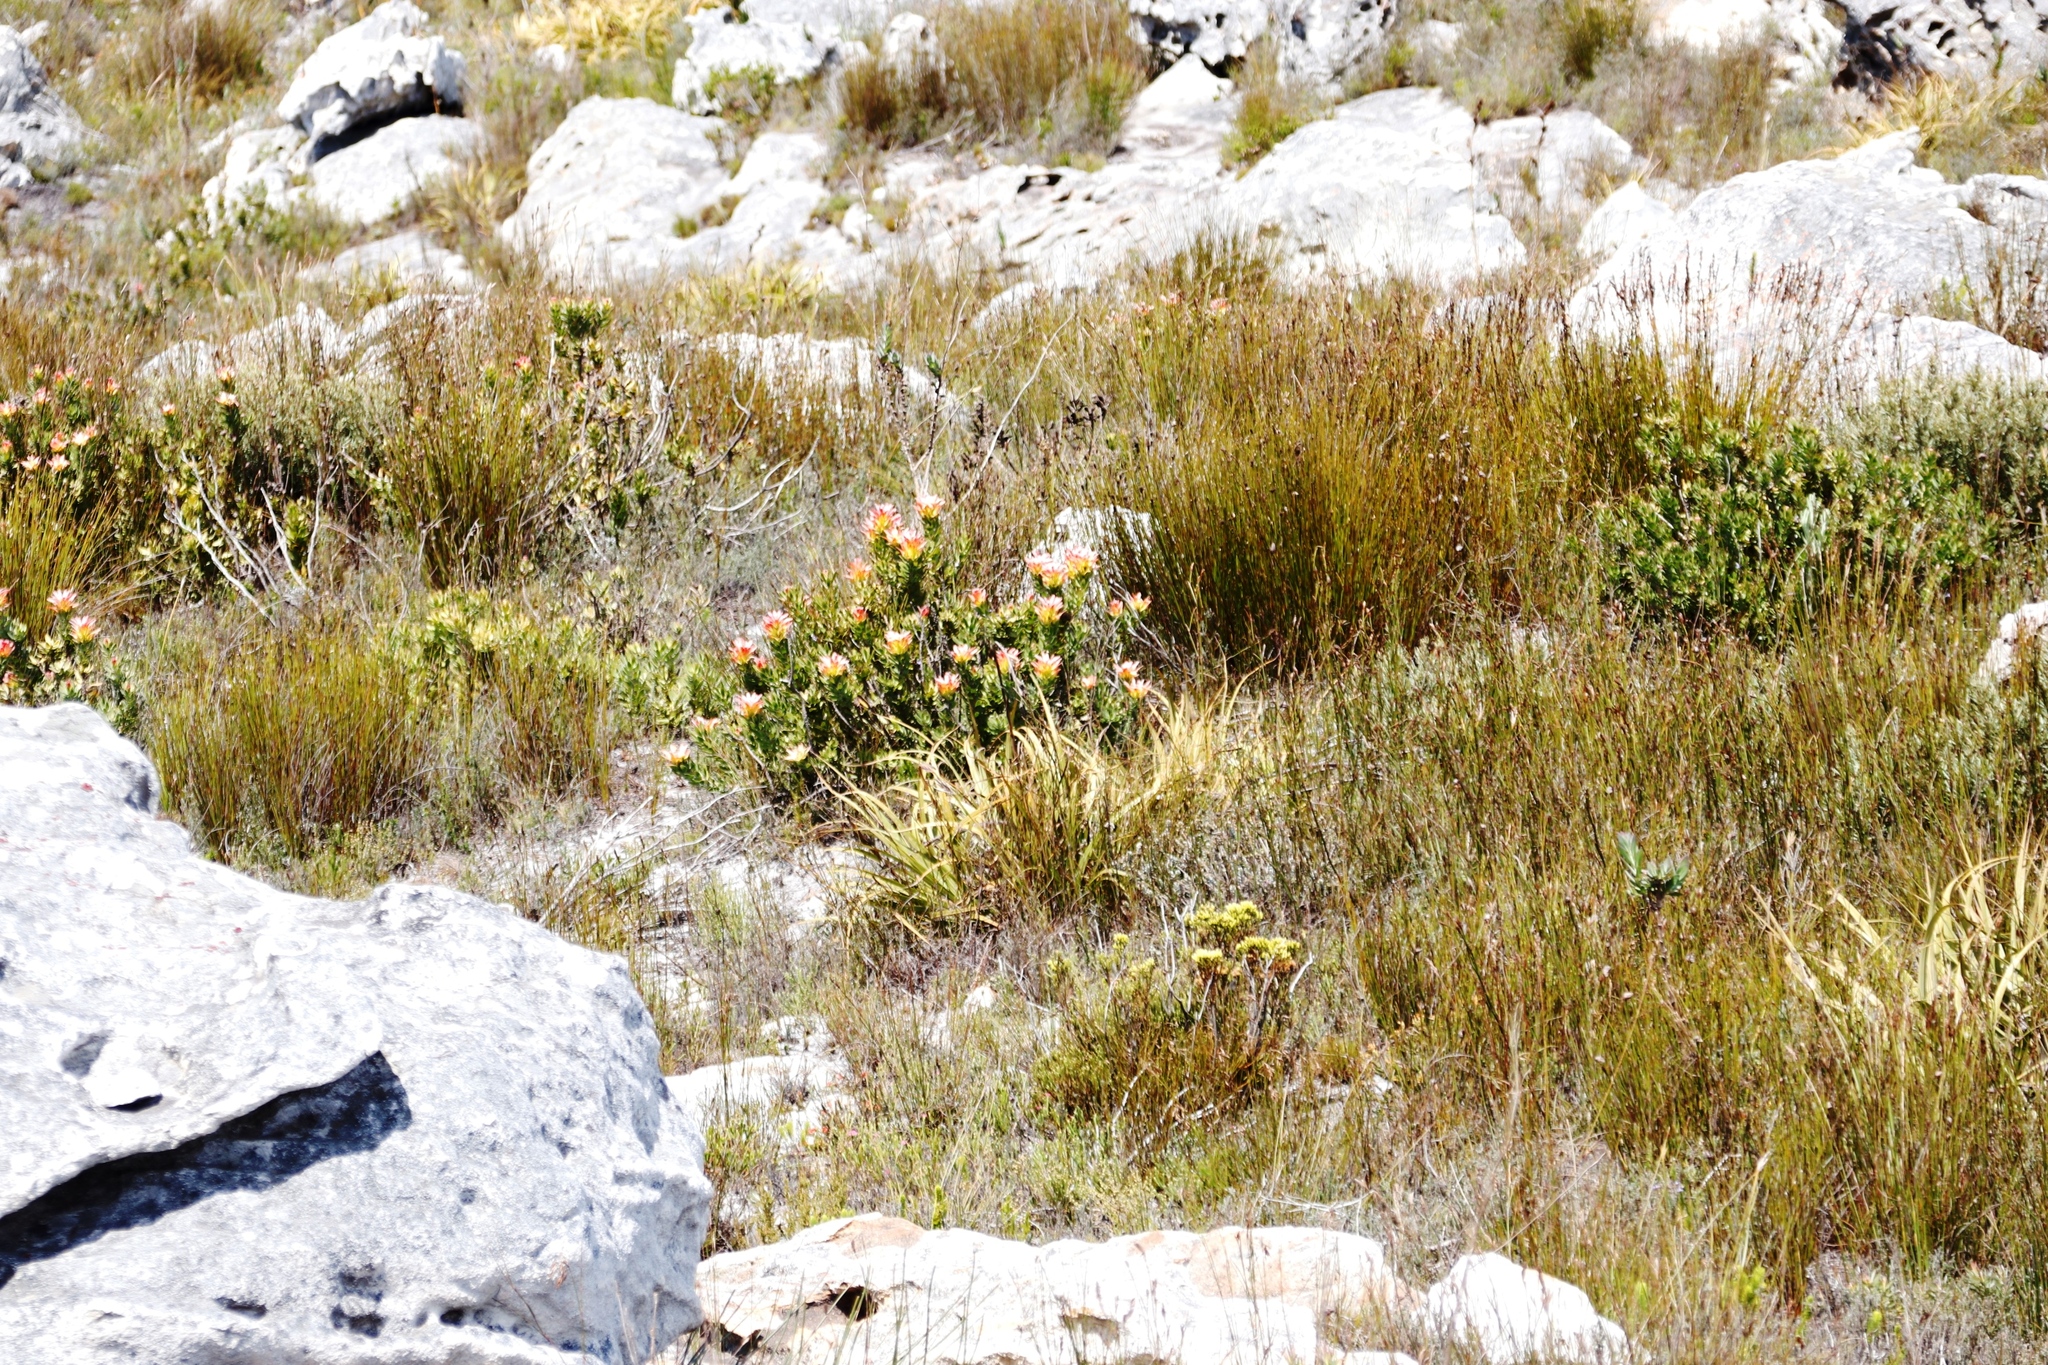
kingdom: Plantae
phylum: Tracheophyta
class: Magnoliopsida
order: Proteales
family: Proteaceae
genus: Mimetes
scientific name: Mimetes cucullatus
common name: Common pagoda
